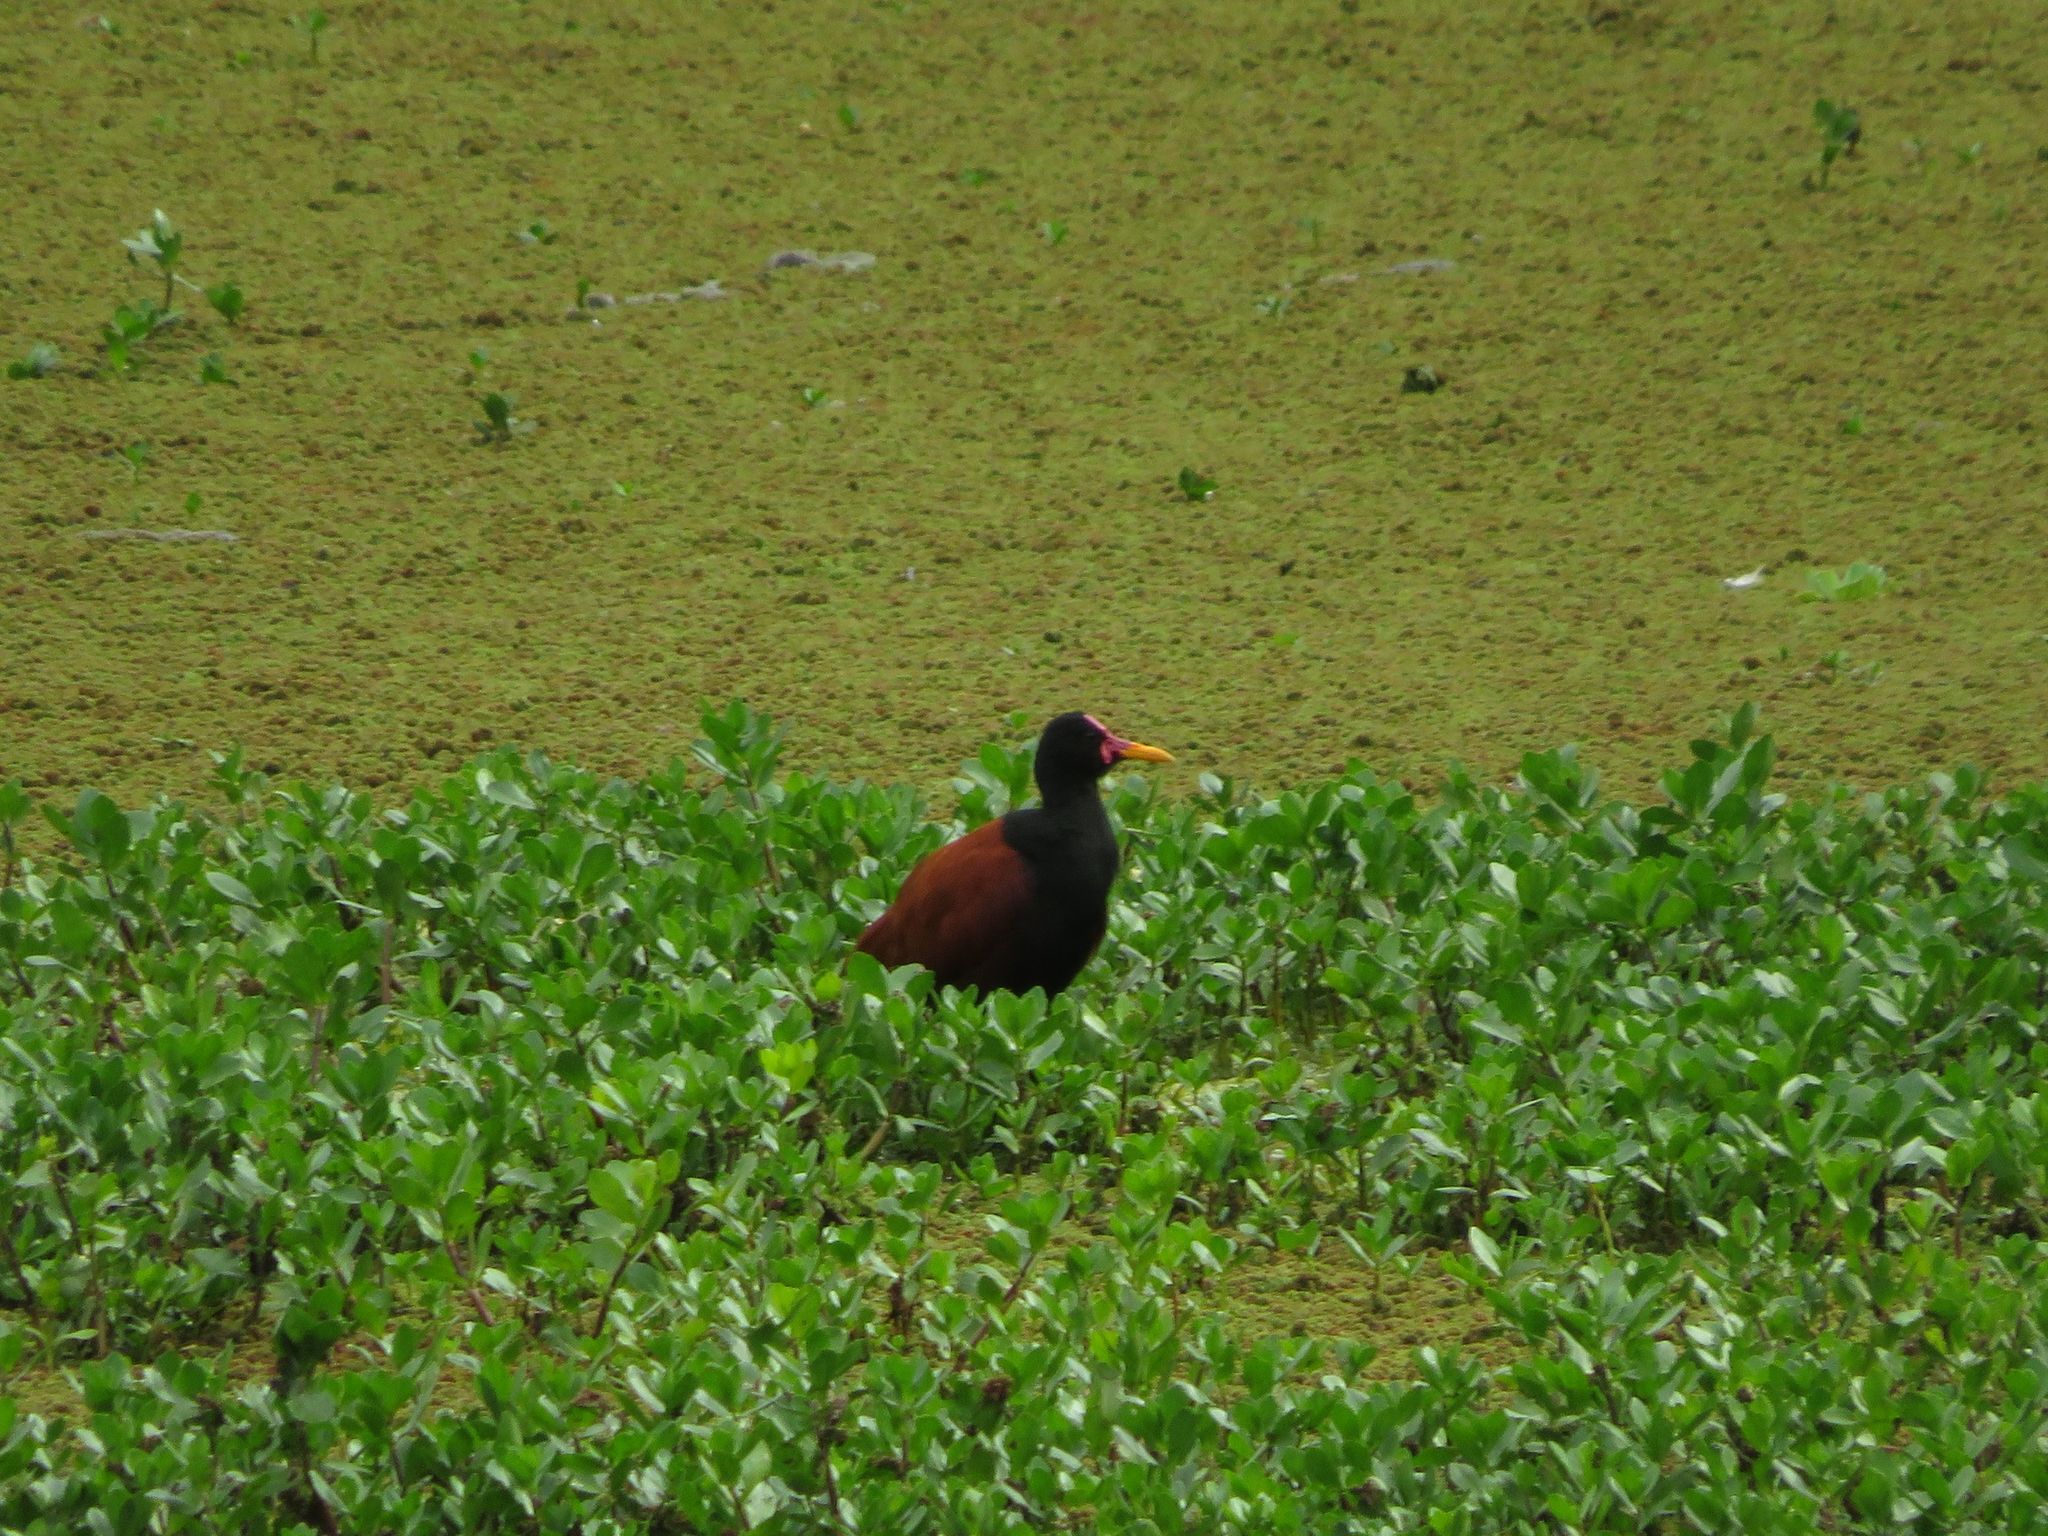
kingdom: Animalia
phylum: Chordata
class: Aves
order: Charadriiformes
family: Jacanidae
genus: Jacana
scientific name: Jacana jacana
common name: Wattled jacana
